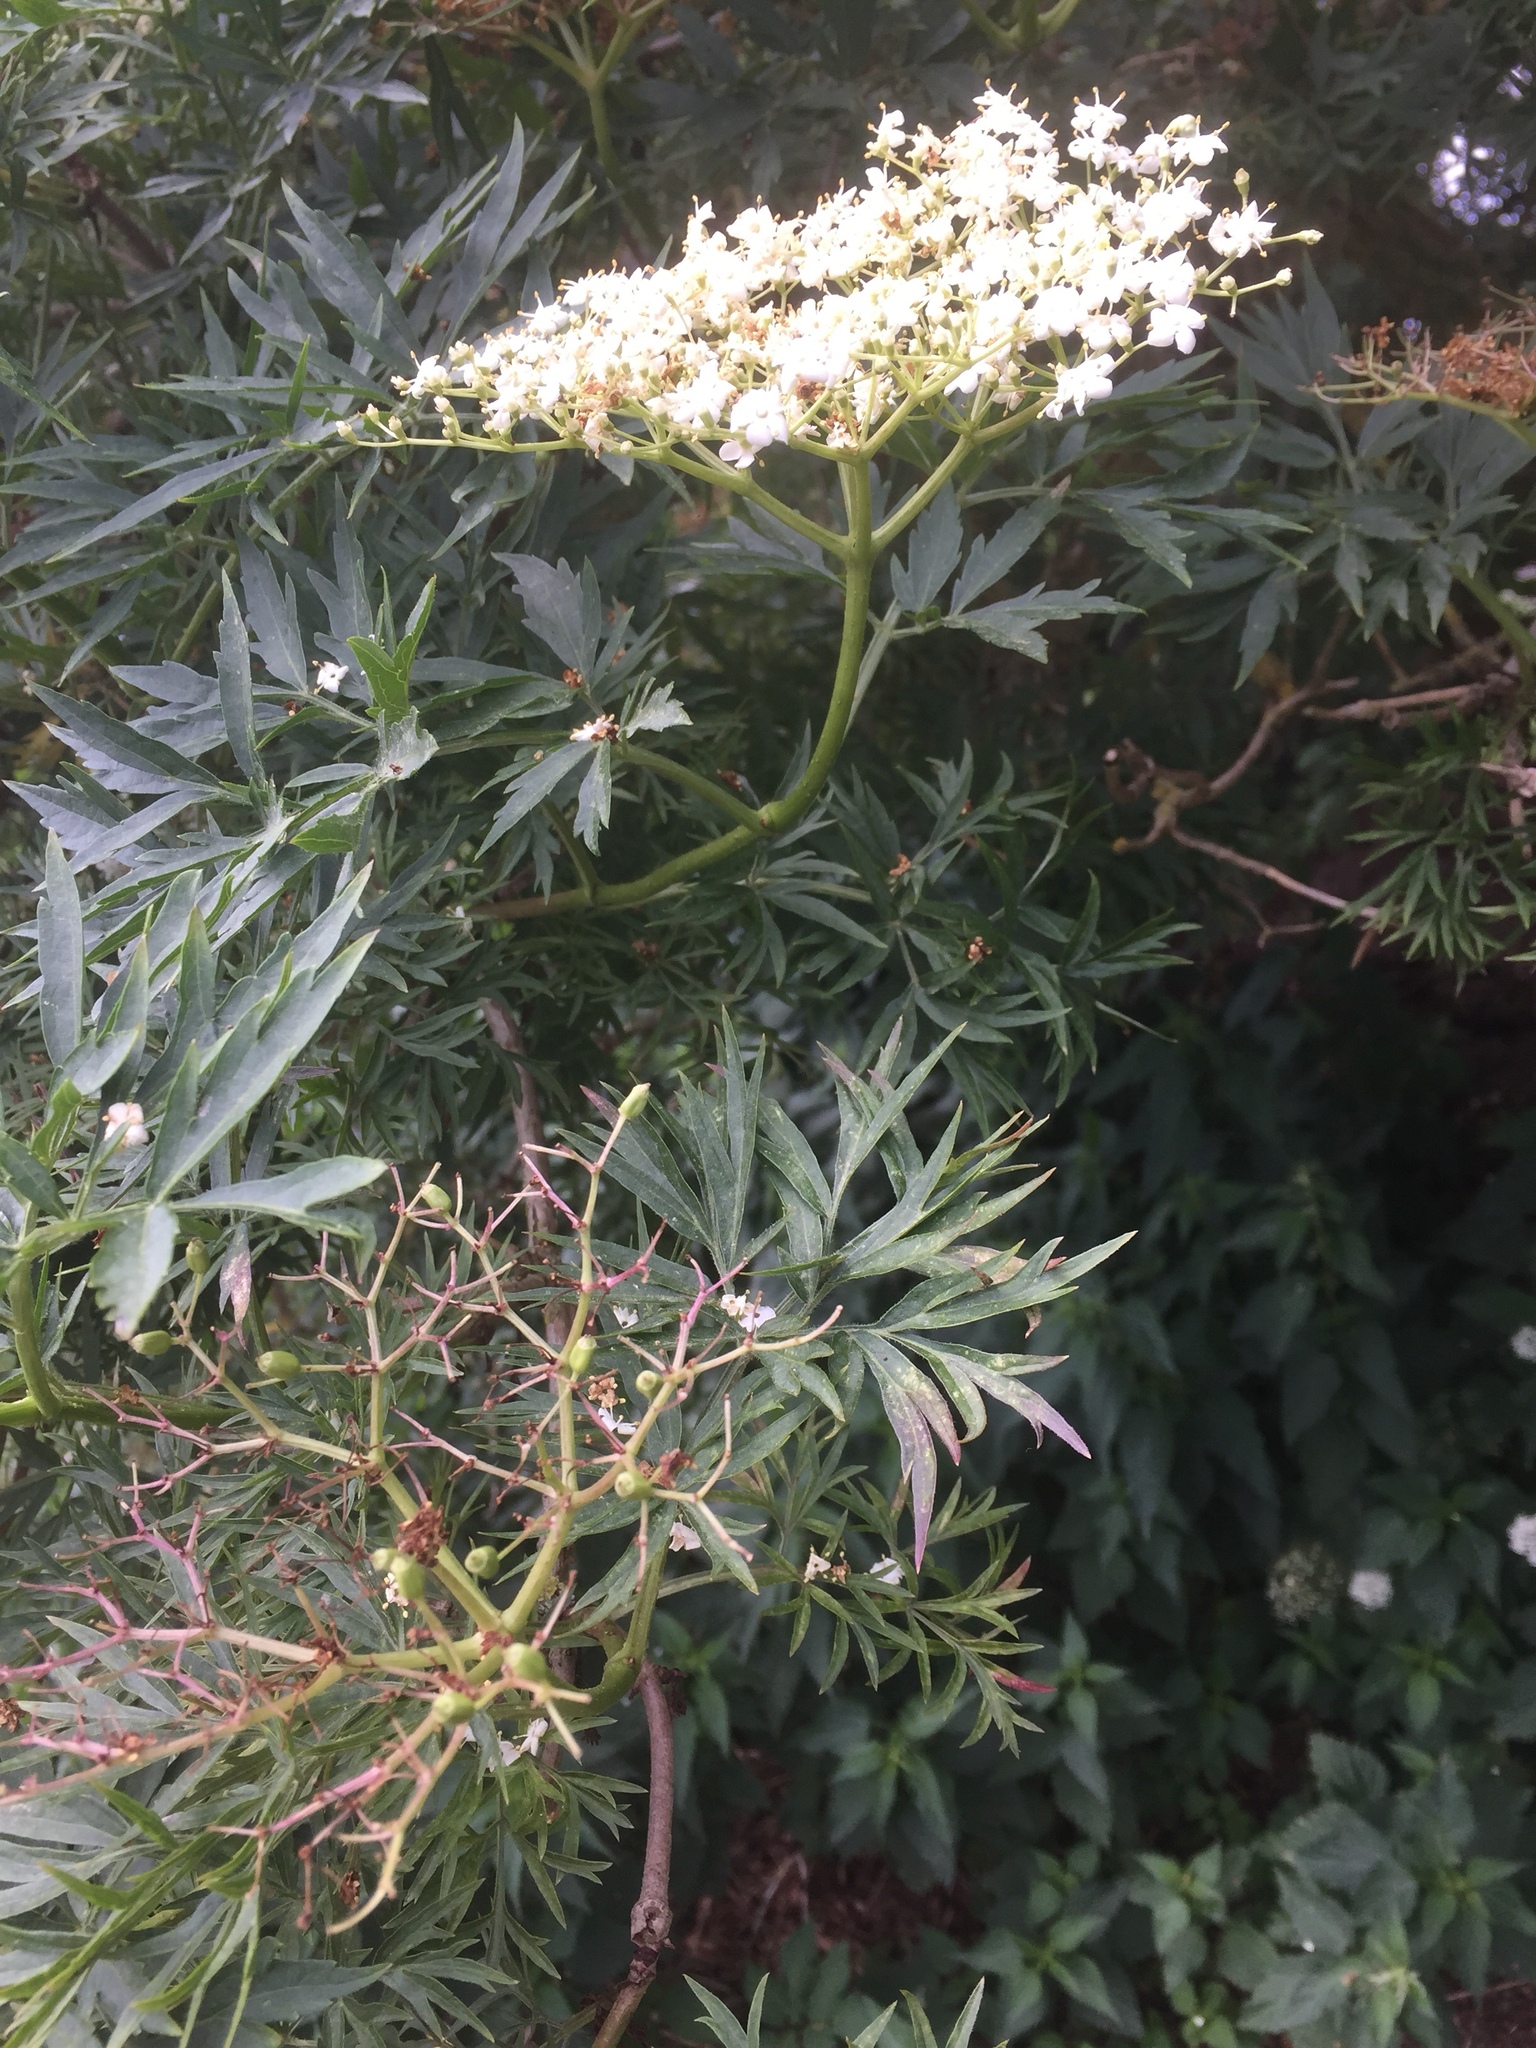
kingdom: Plantae
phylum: Tracheophyta
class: Magnoliopsida
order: Dipsacales
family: Viburnaceae
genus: Sambucus
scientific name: Sambucus nigra
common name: Elder
